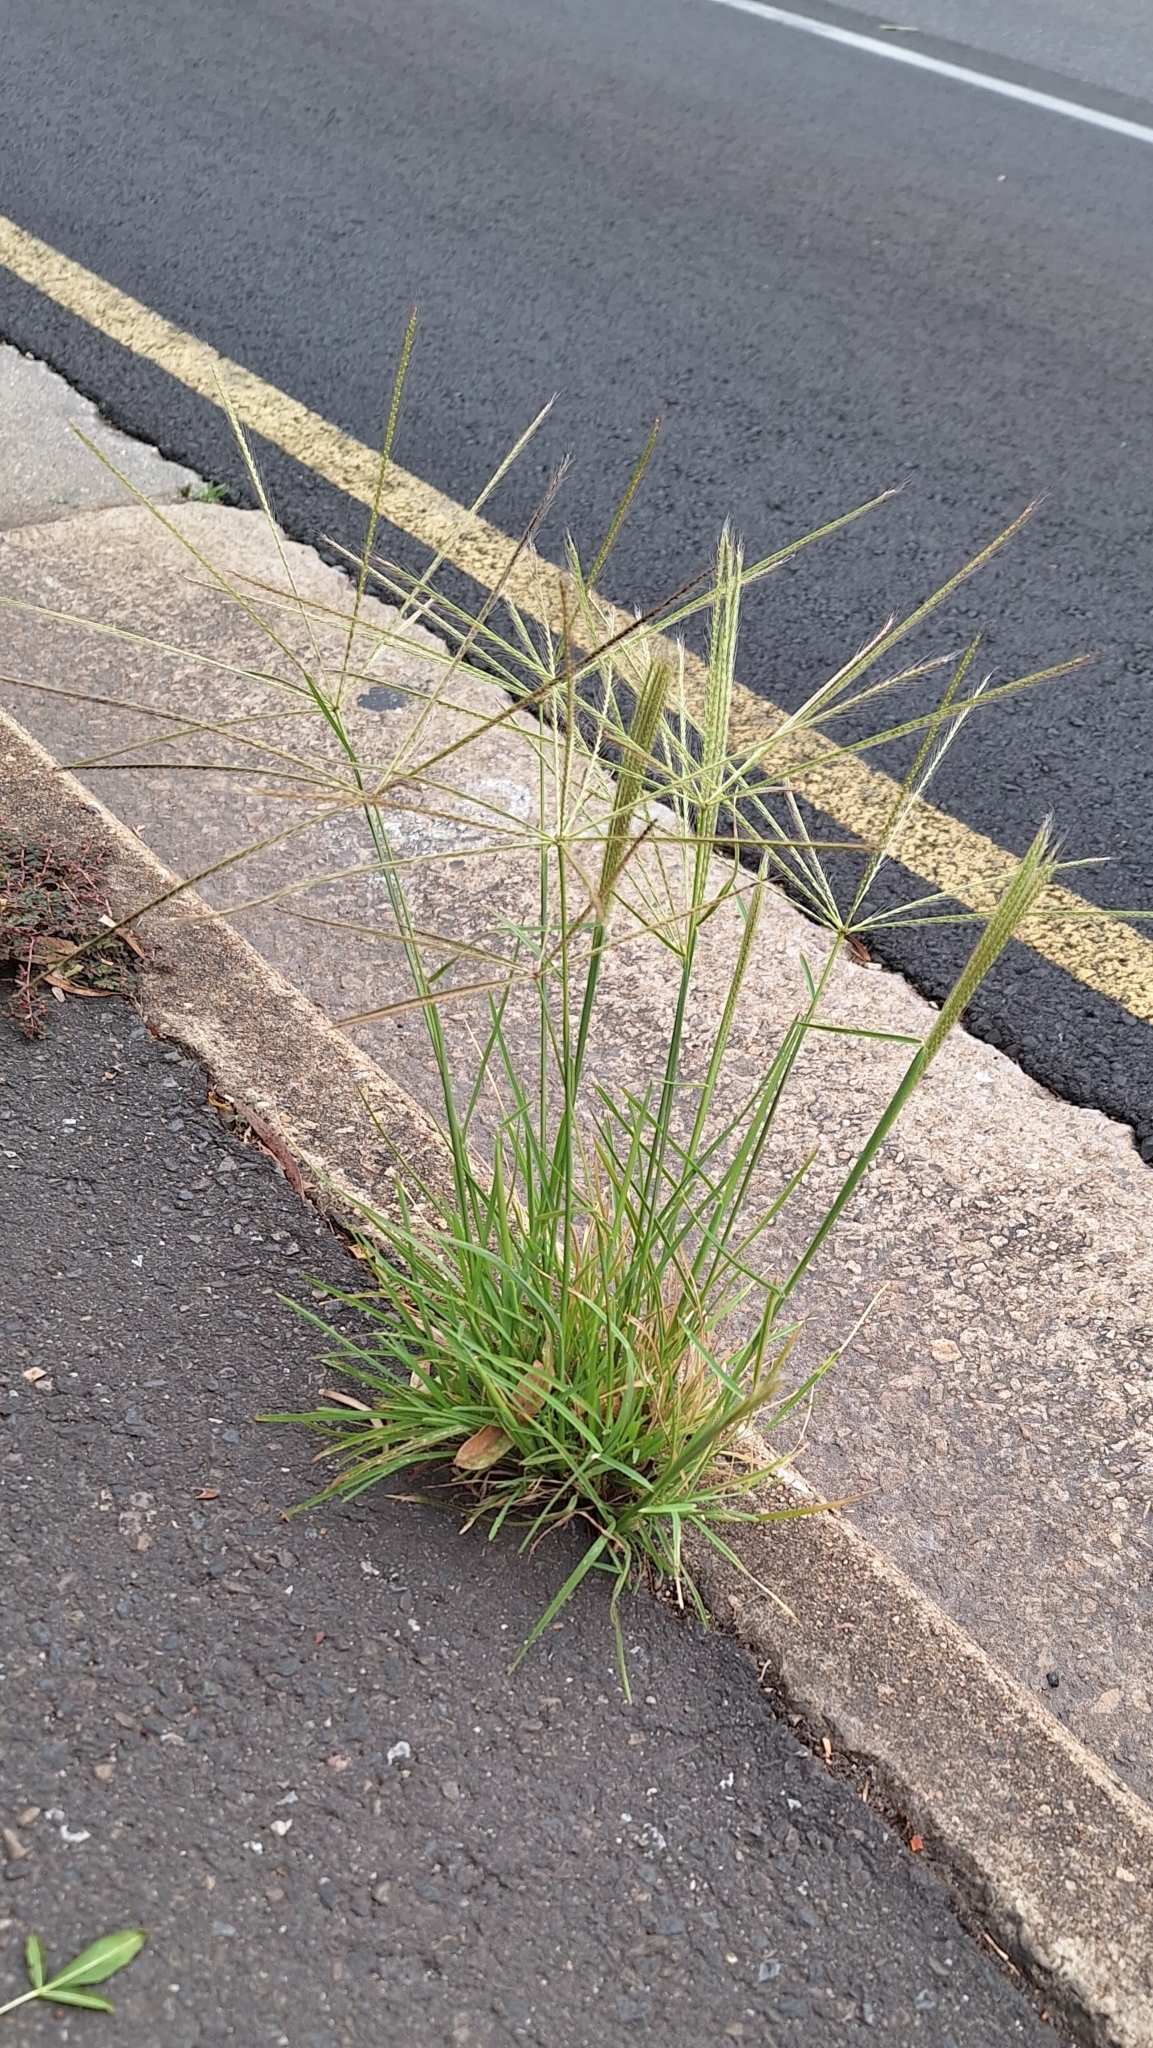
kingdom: Plantae
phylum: Tracheophyta
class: Liliopsida
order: Poales
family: Poaceae
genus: Chloris
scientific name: Chloris truncata
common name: Windmill-grass
